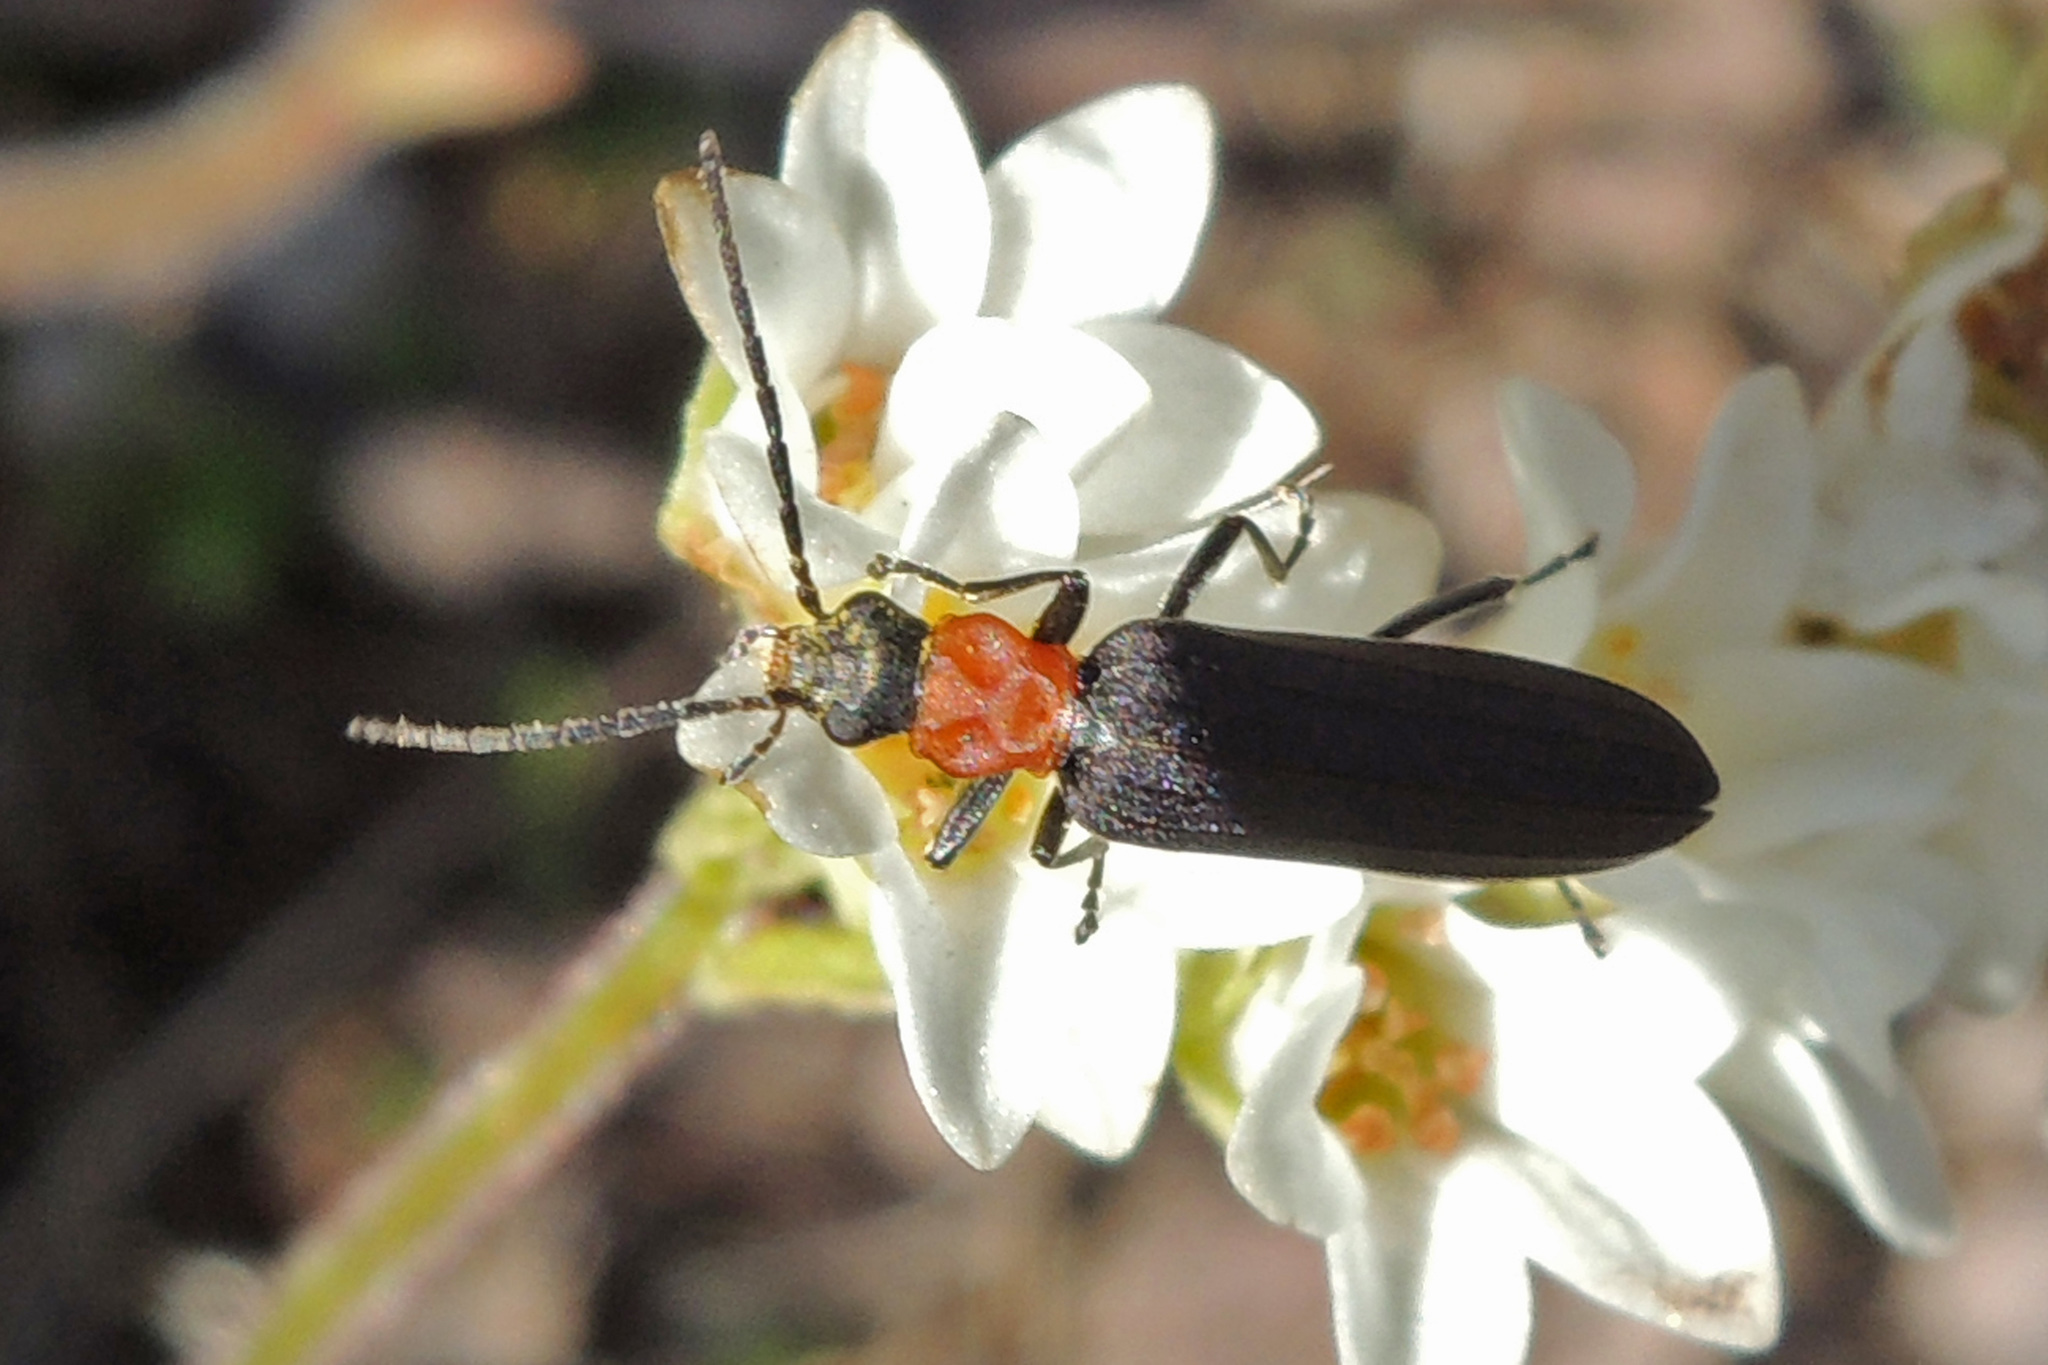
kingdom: Animalia
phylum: Arthropoda
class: Insecta
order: Coleoptera
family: Oedemeridae
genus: Ischnomera
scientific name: Ischnomera
